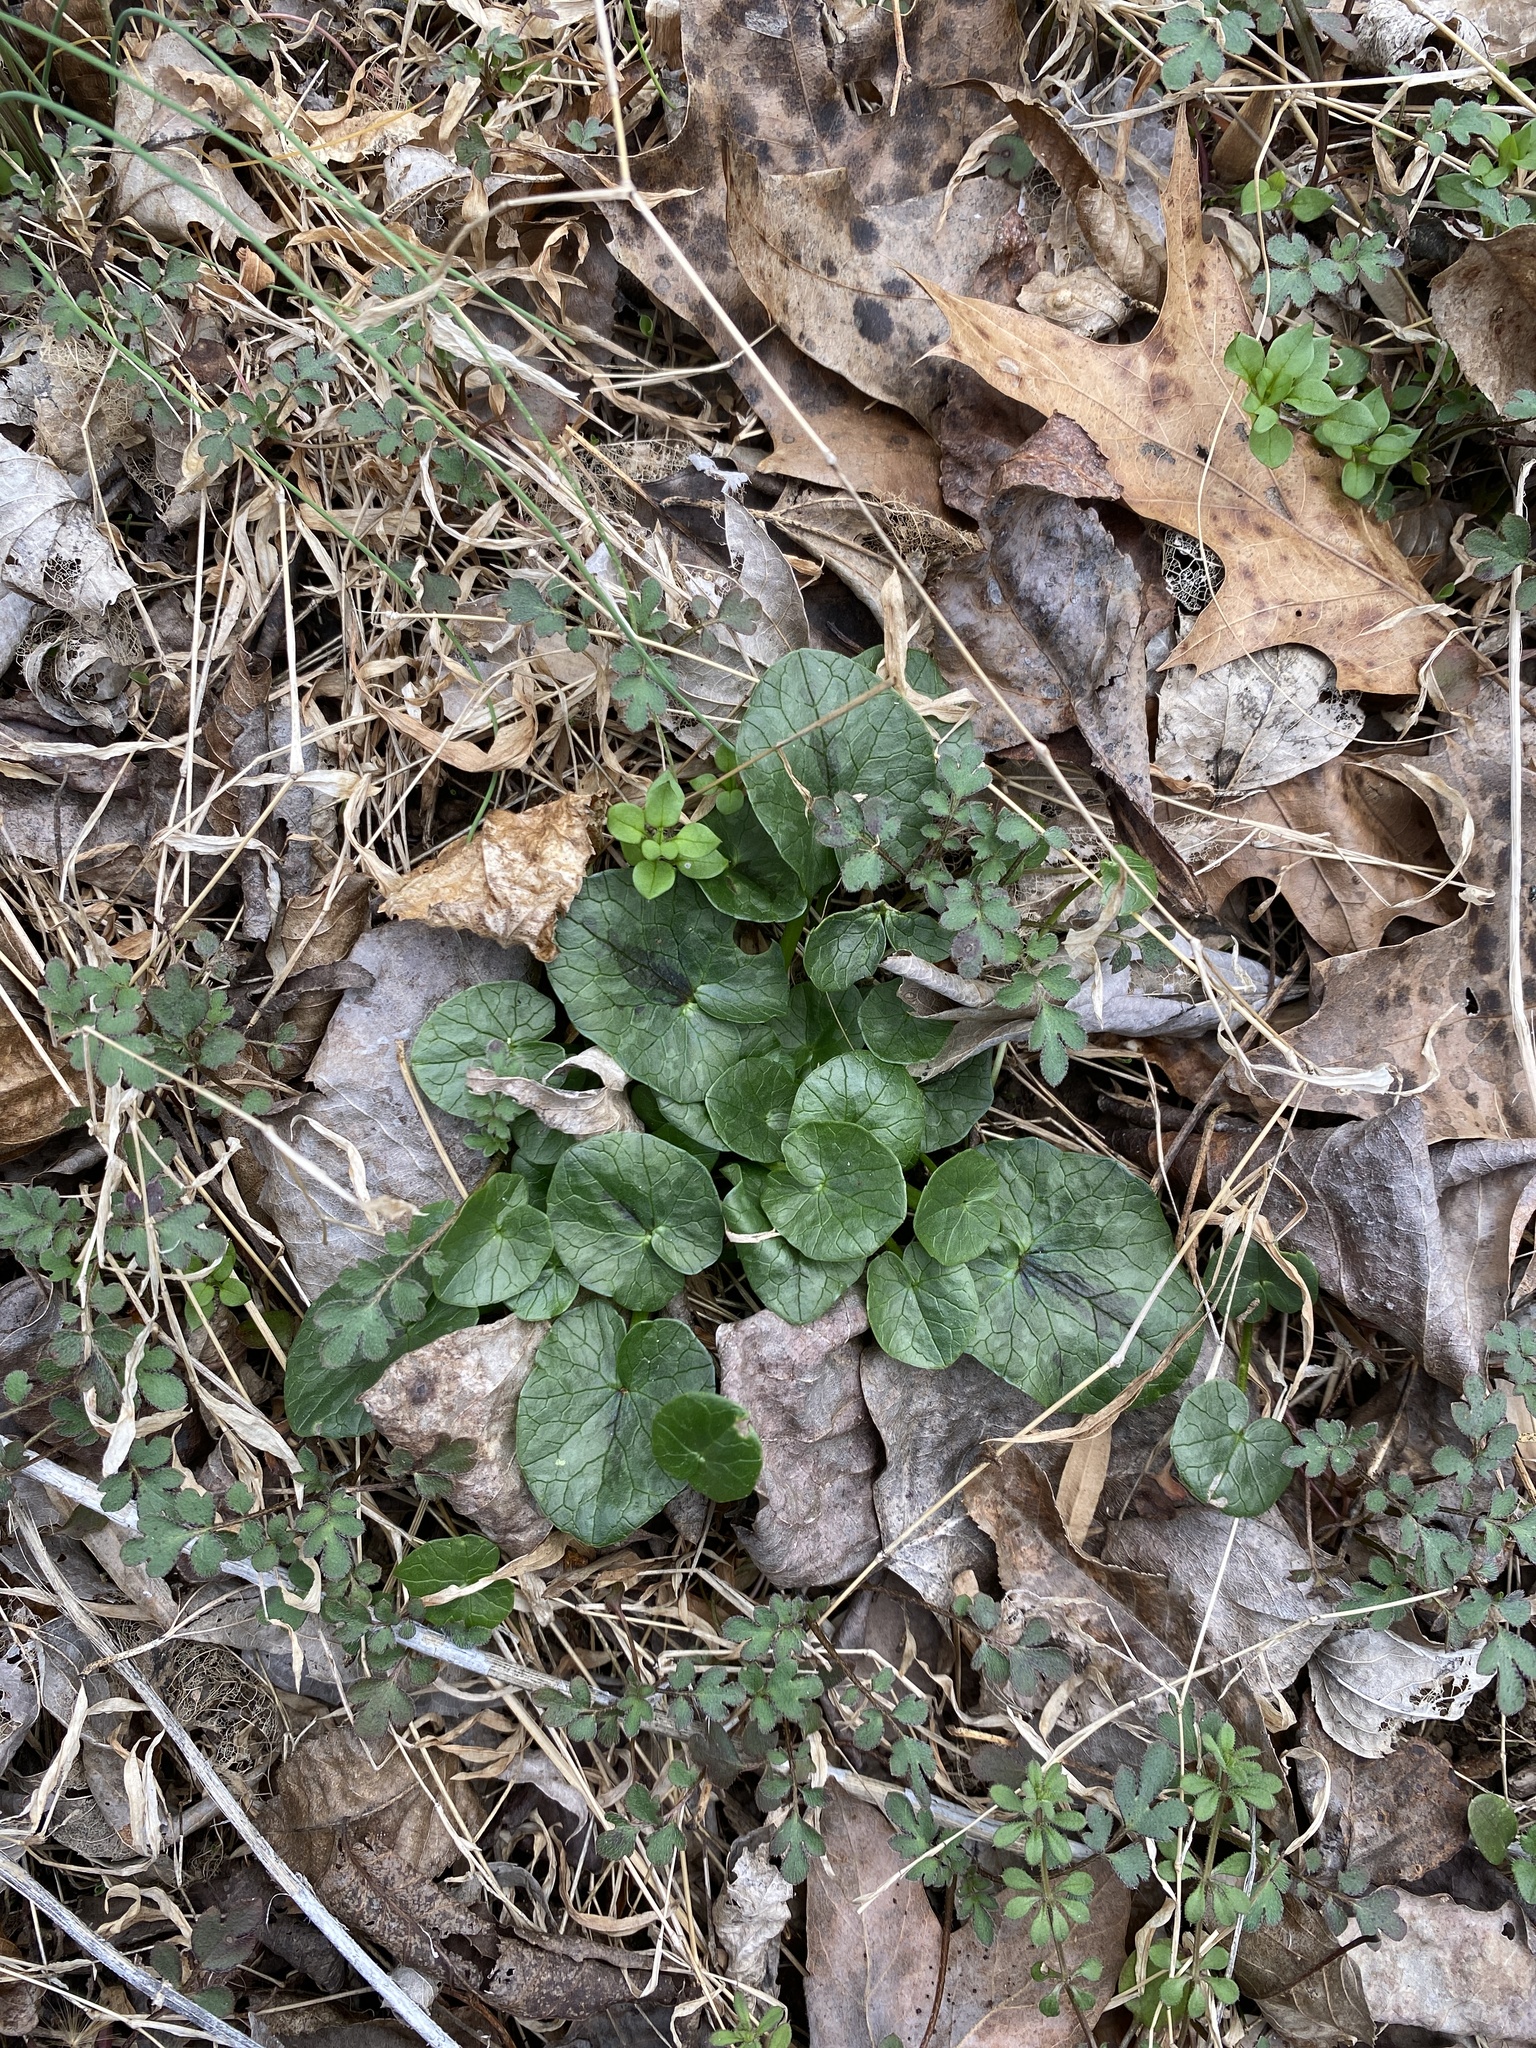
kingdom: Plantae
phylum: Tracheophyta
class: Magnoliopsida
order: Ranunculales
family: Ranunculaceae
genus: Ficaria
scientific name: Ficaria verna
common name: Lesser celandine
